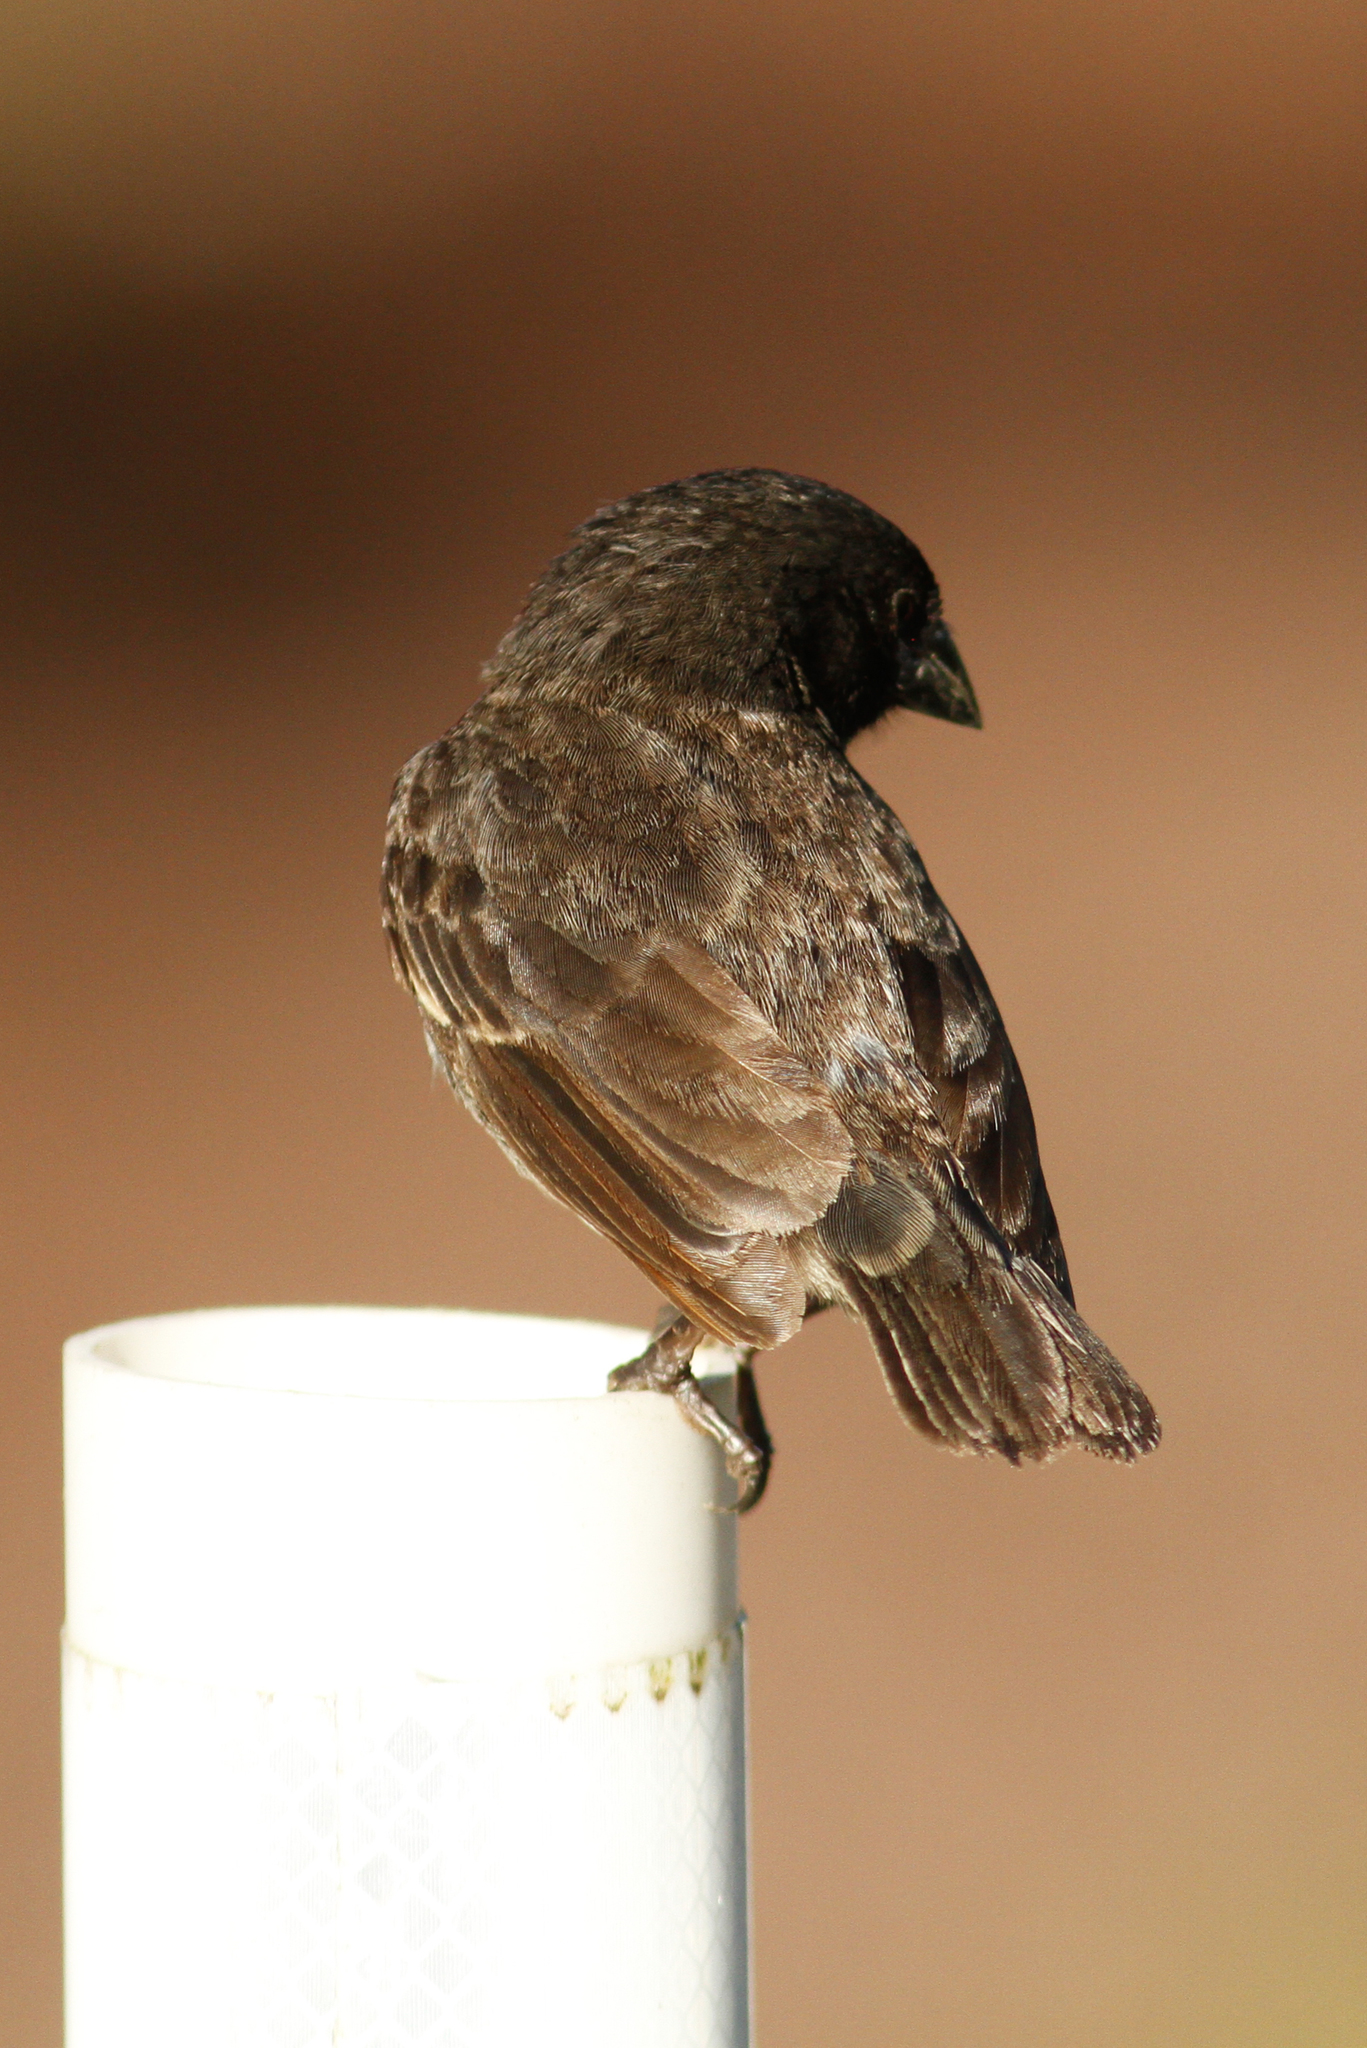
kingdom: Animalia
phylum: Chordata
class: Aves
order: Passeriformes
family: Thraupidae
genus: Geospiza
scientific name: Geospiza scandens
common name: Common cactus-finch
